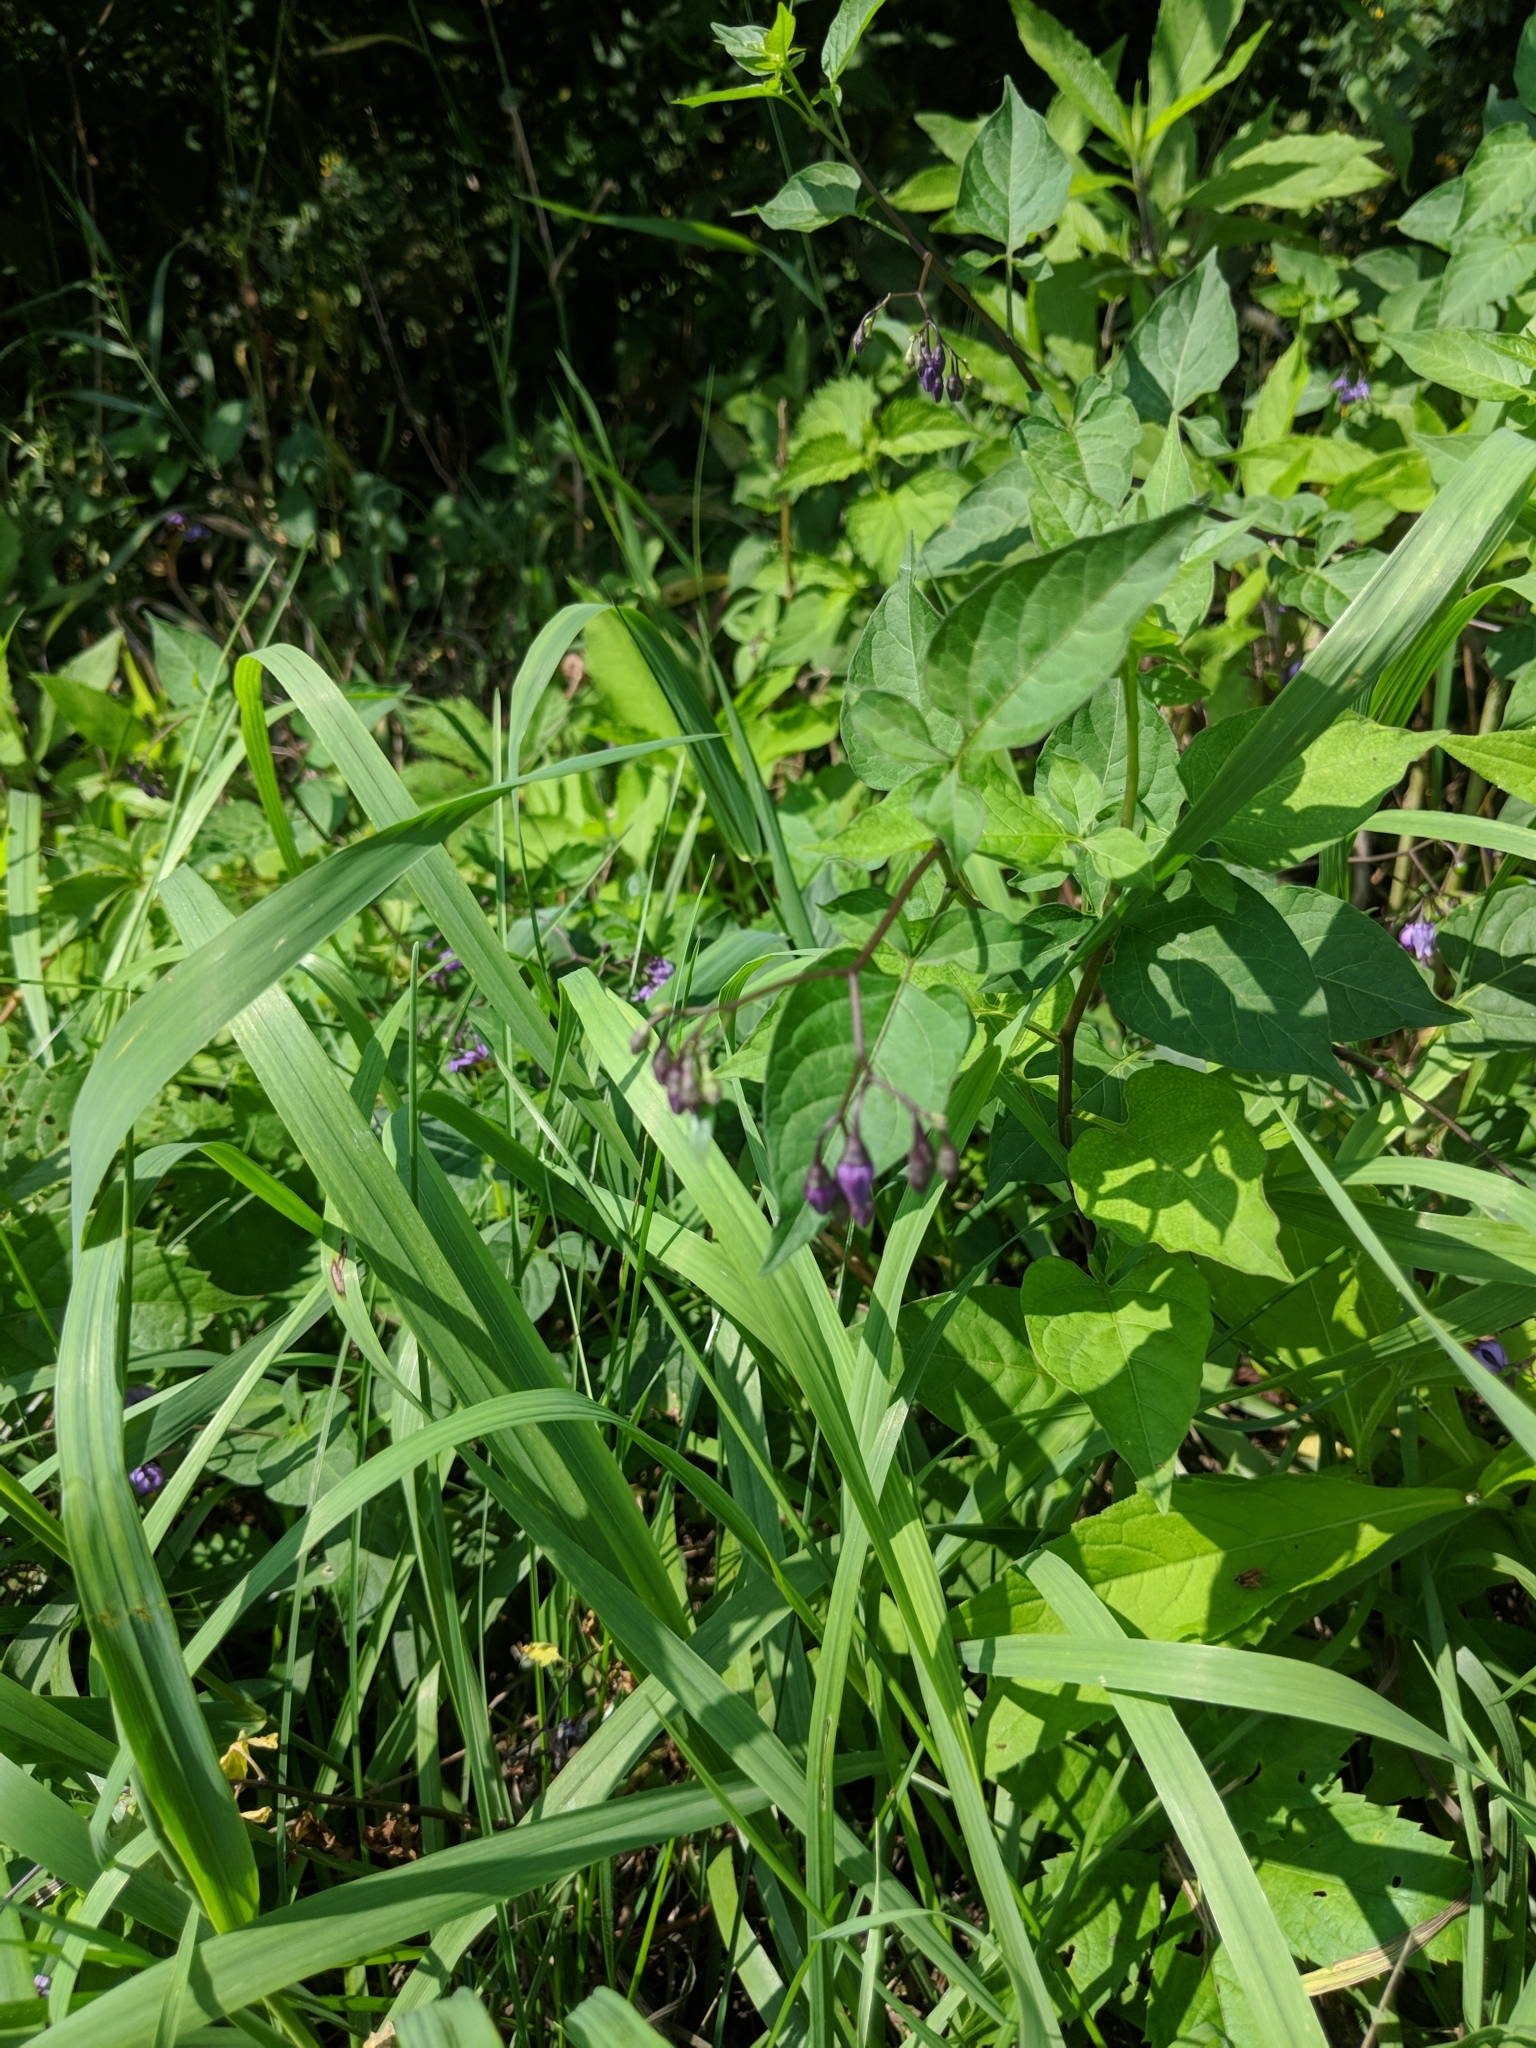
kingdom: Plantae
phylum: Tracheophyta
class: Magnoliopsida
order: Solanales
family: Solanaceae
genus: Solanum
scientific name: Solanum dulcamara
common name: Climbing nightshade
